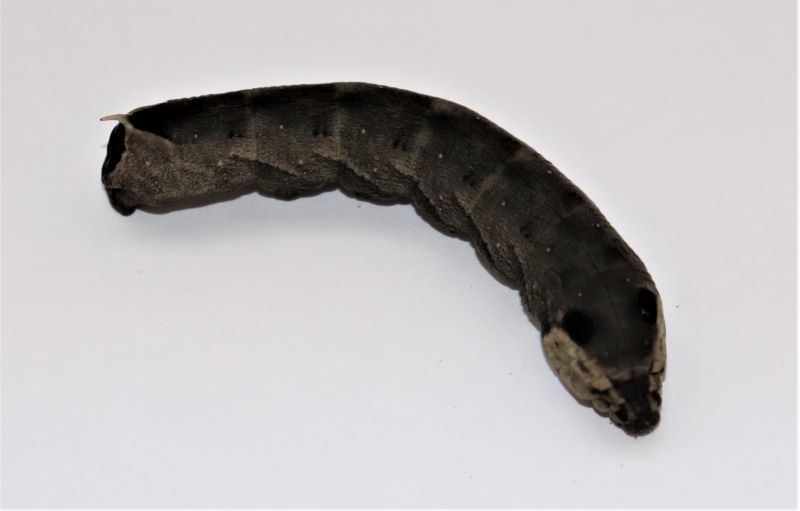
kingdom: Animalia
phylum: Arthropoda
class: Insecta
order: Lepidoptera
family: Sphingidae
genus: Hippotion
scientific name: Hippotion eson
